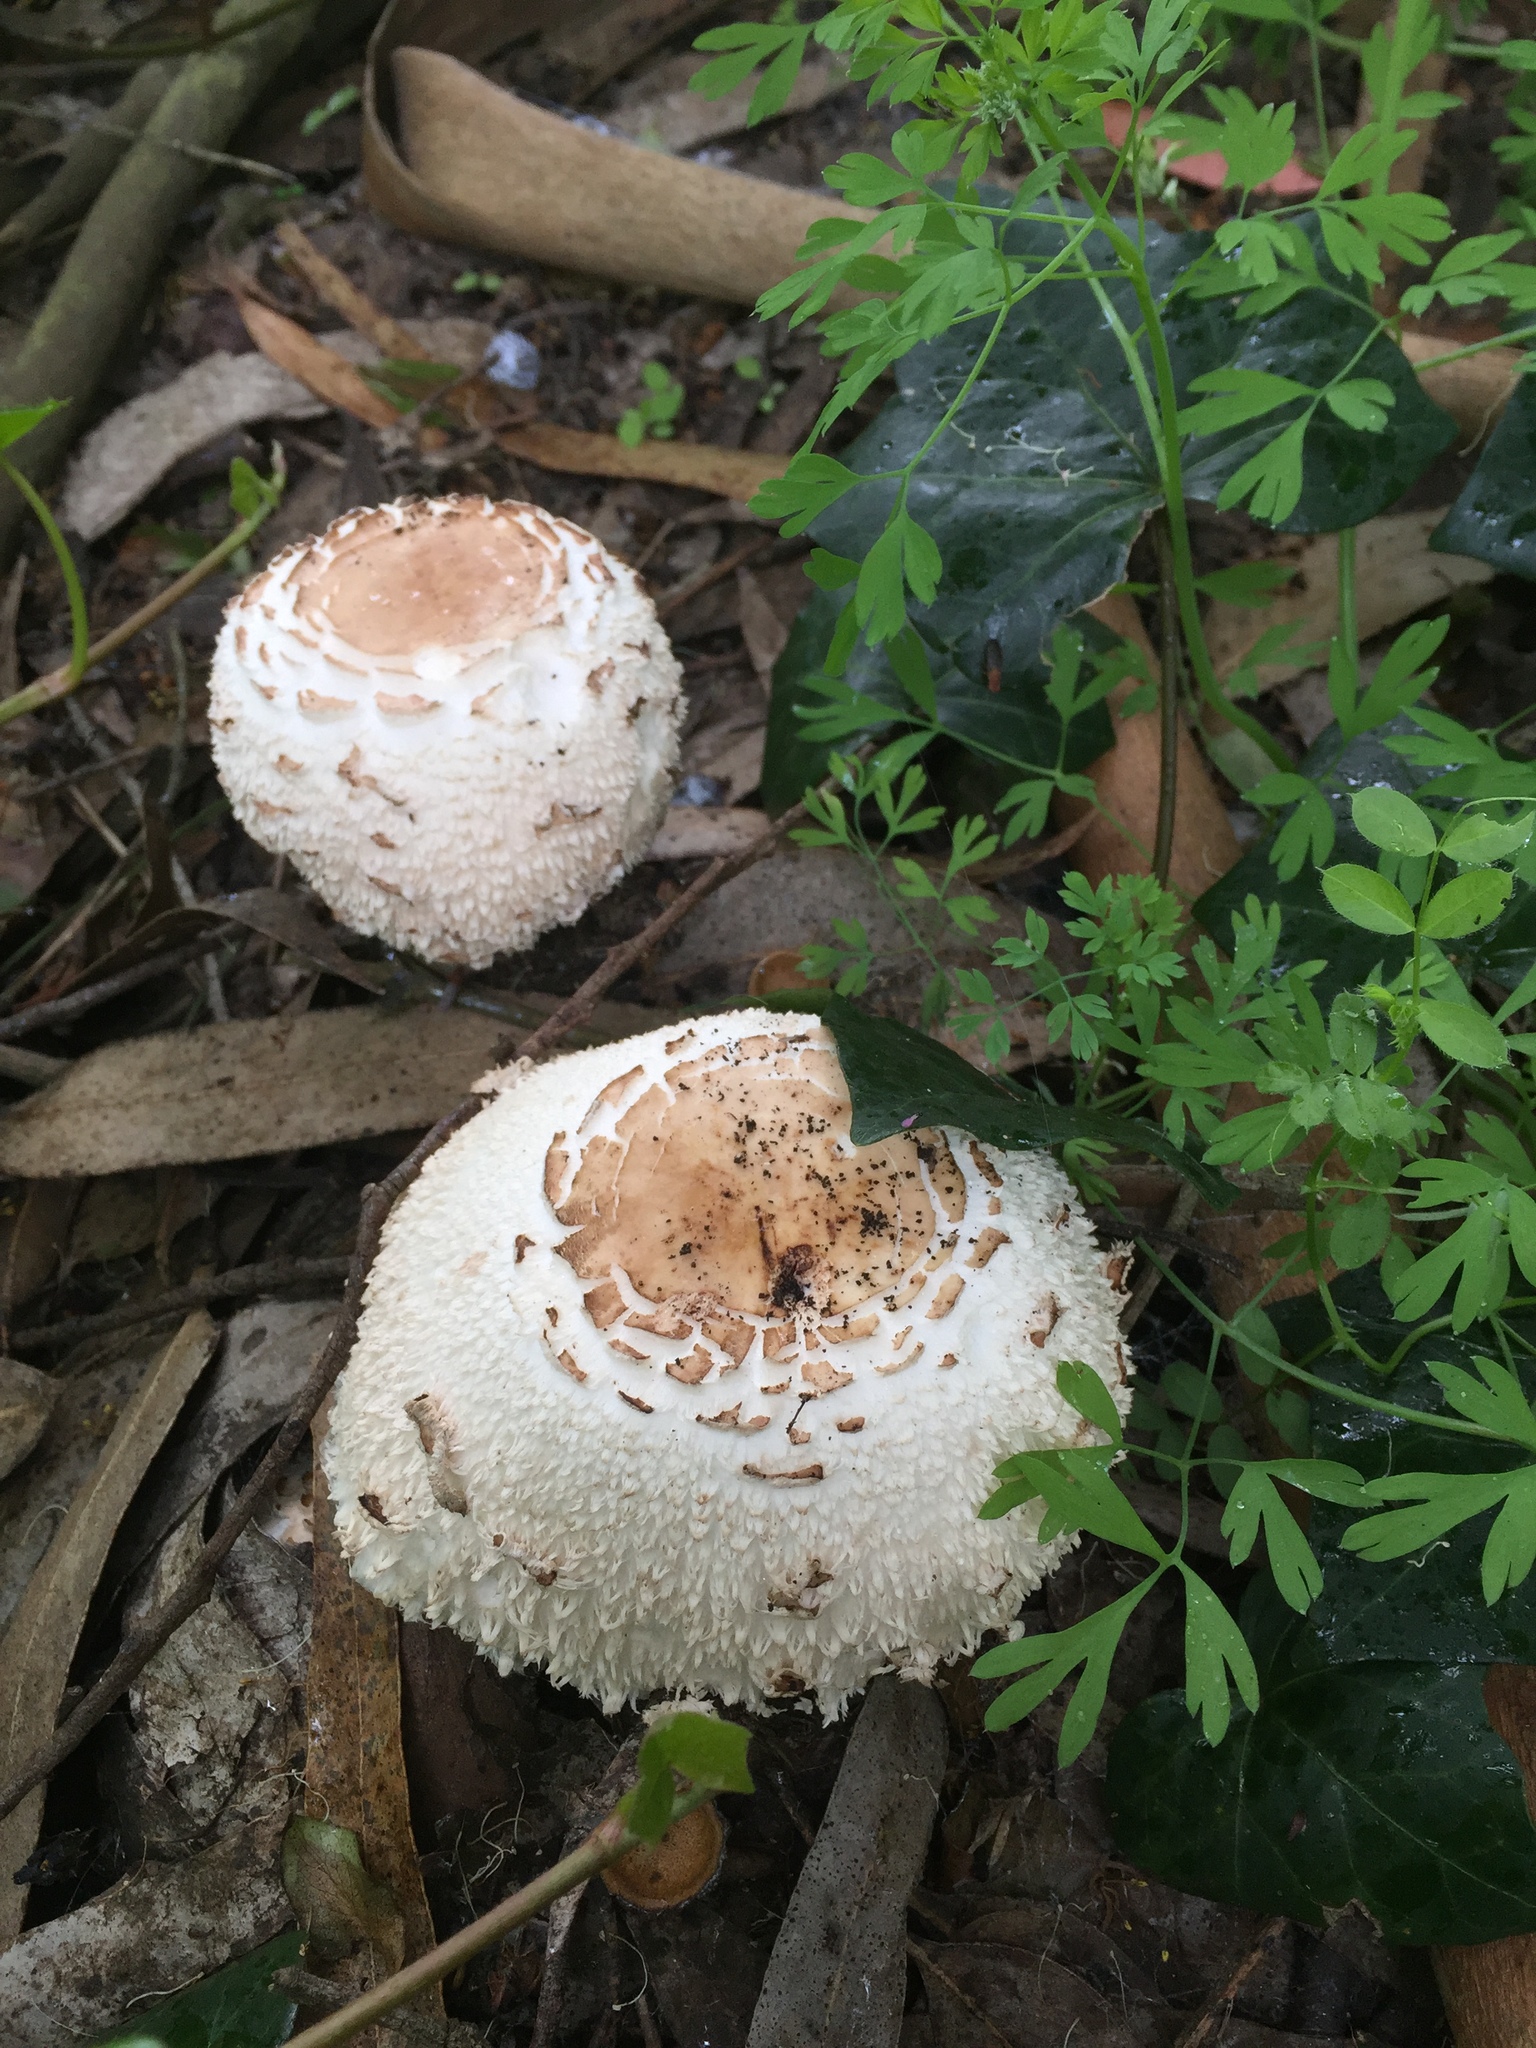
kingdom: Fungi
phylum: Basidiomycota
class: Agaricomycetes
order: Agaricales
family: Agaricaceae
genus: Chlorophyllum
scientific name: Chlorophyllum brunneum
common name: Brown parasol
